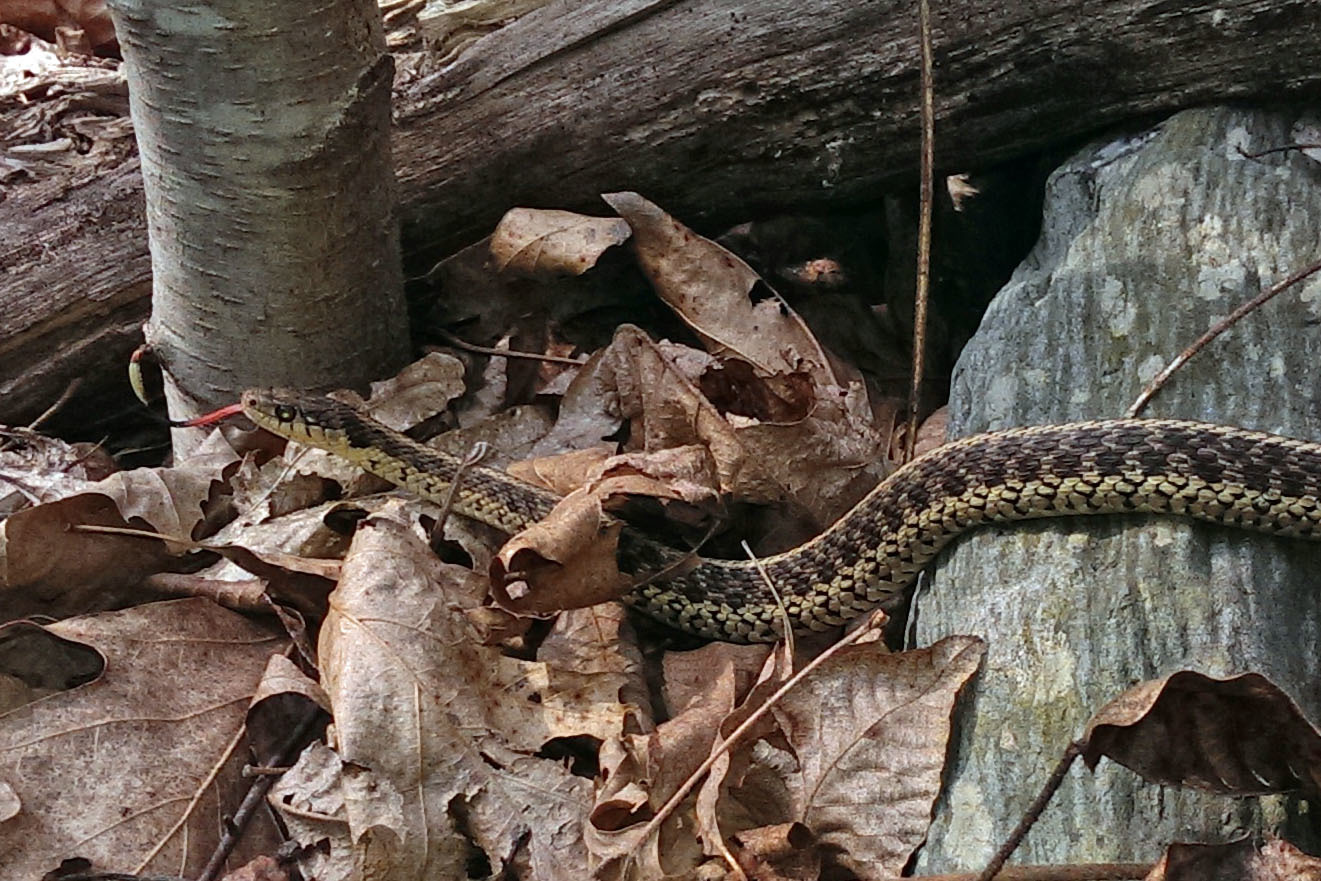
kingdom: Animalia
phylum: Chordata
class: Squamata
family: Colubridae
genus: Thamnophis
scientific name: Thamnophis sirtalis
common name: Common garter snake
